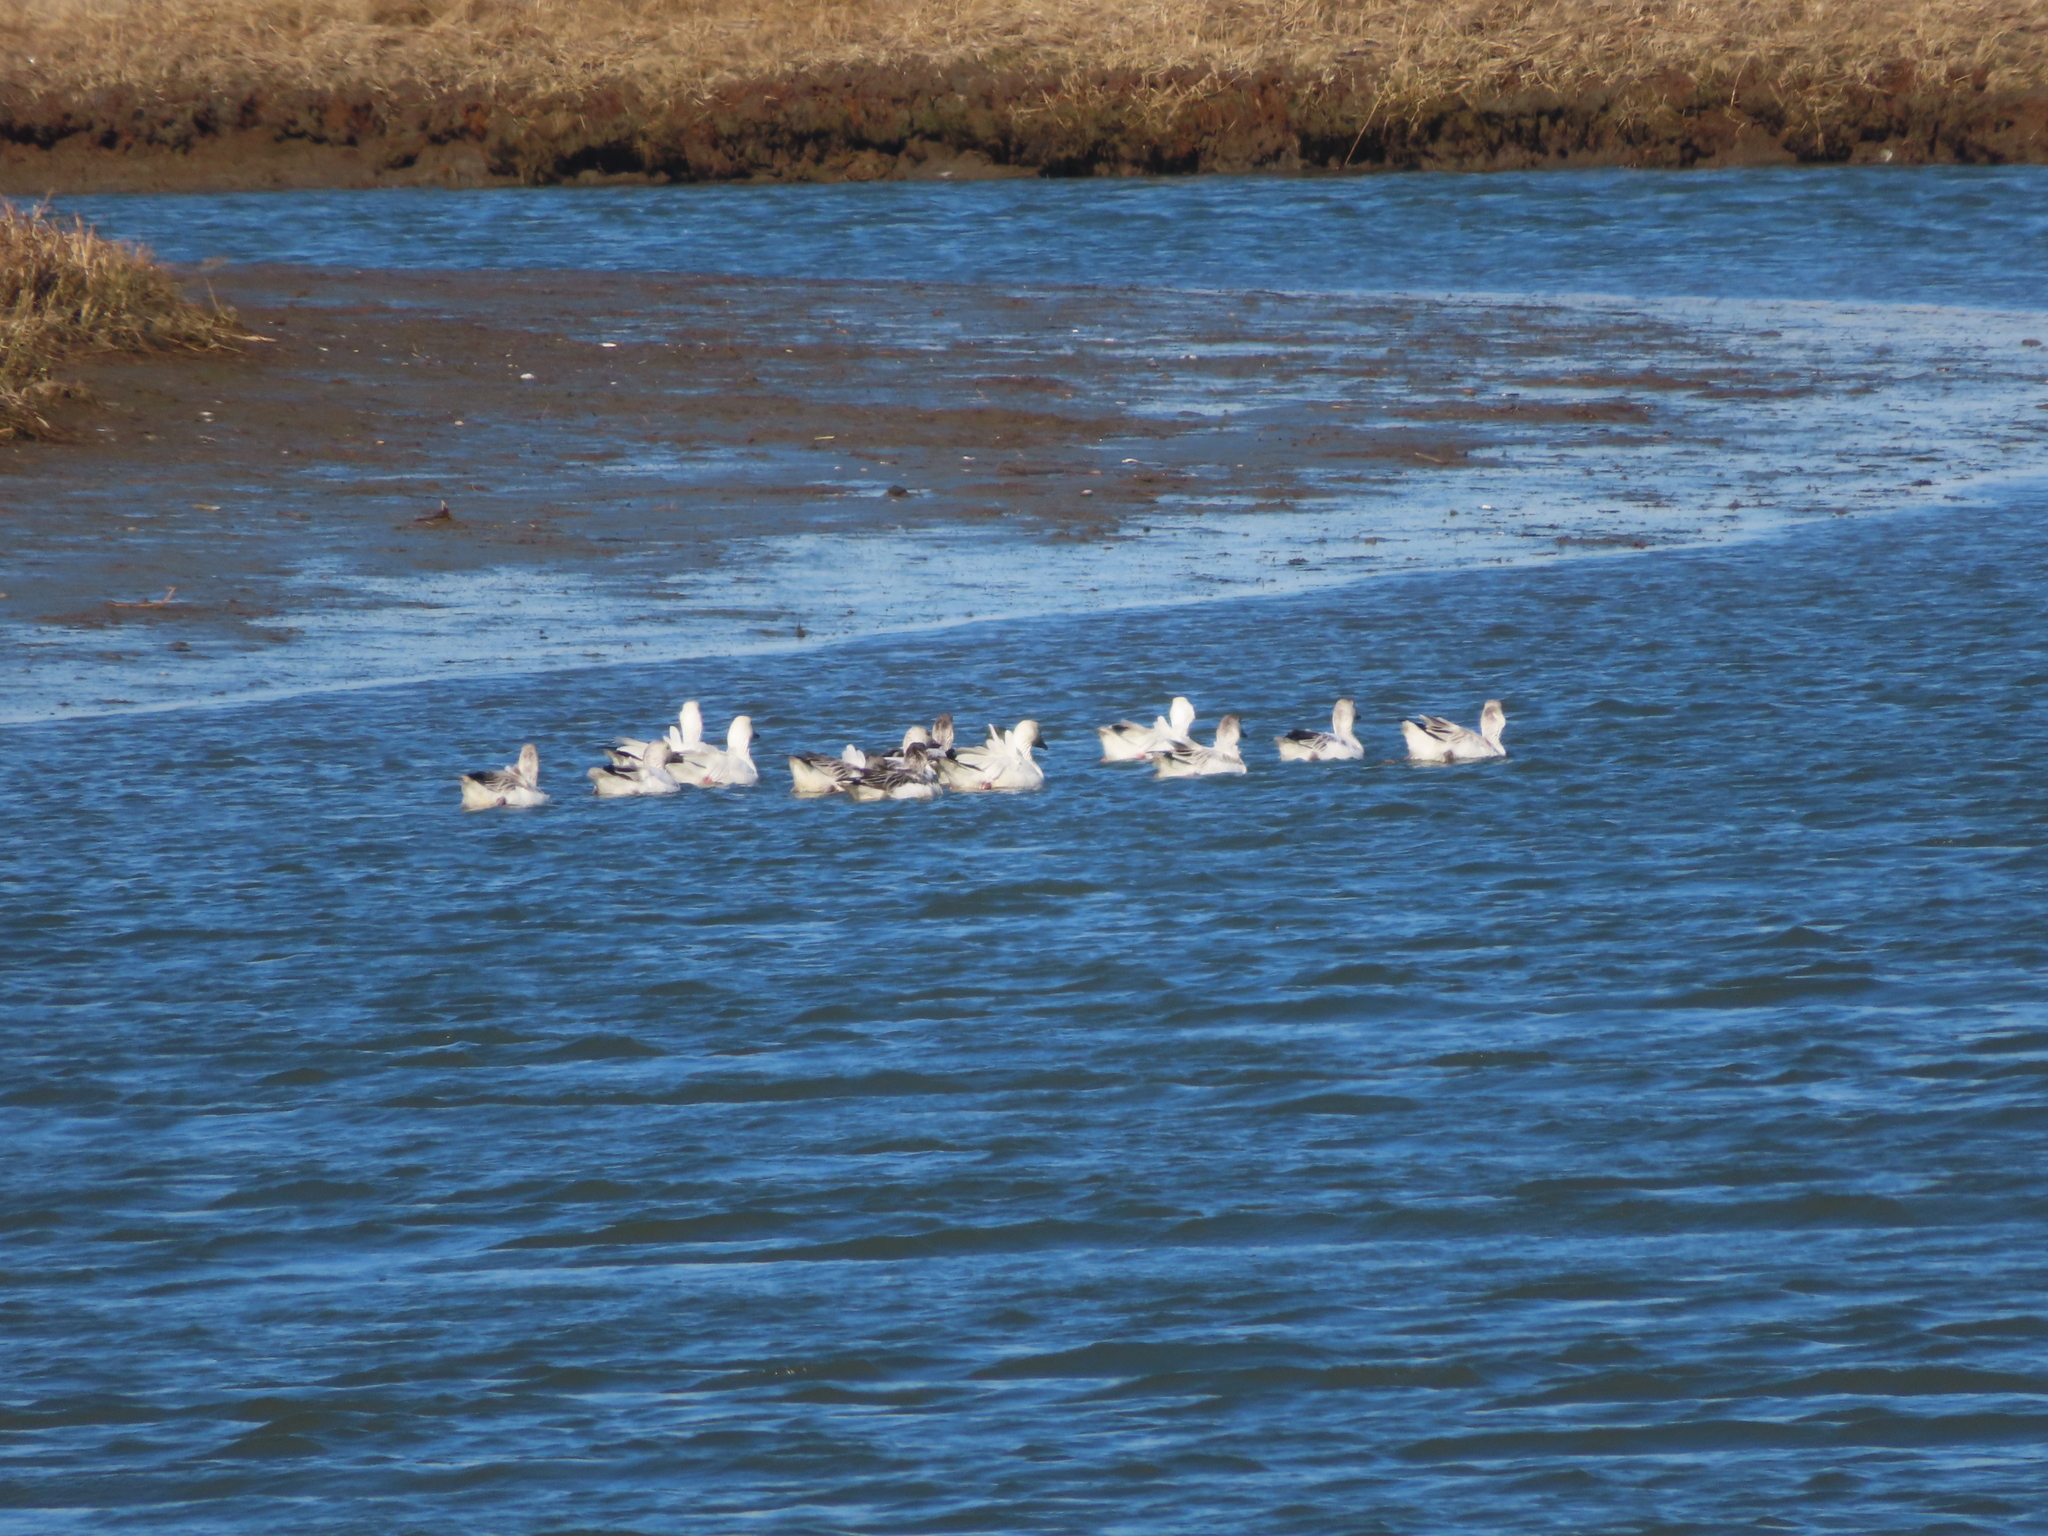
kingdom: Animalia
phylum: Chordata
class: Aves
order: Anseriformes
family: Anatidae
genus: Anser
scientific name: Anser caerulescens
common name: Snow goose
